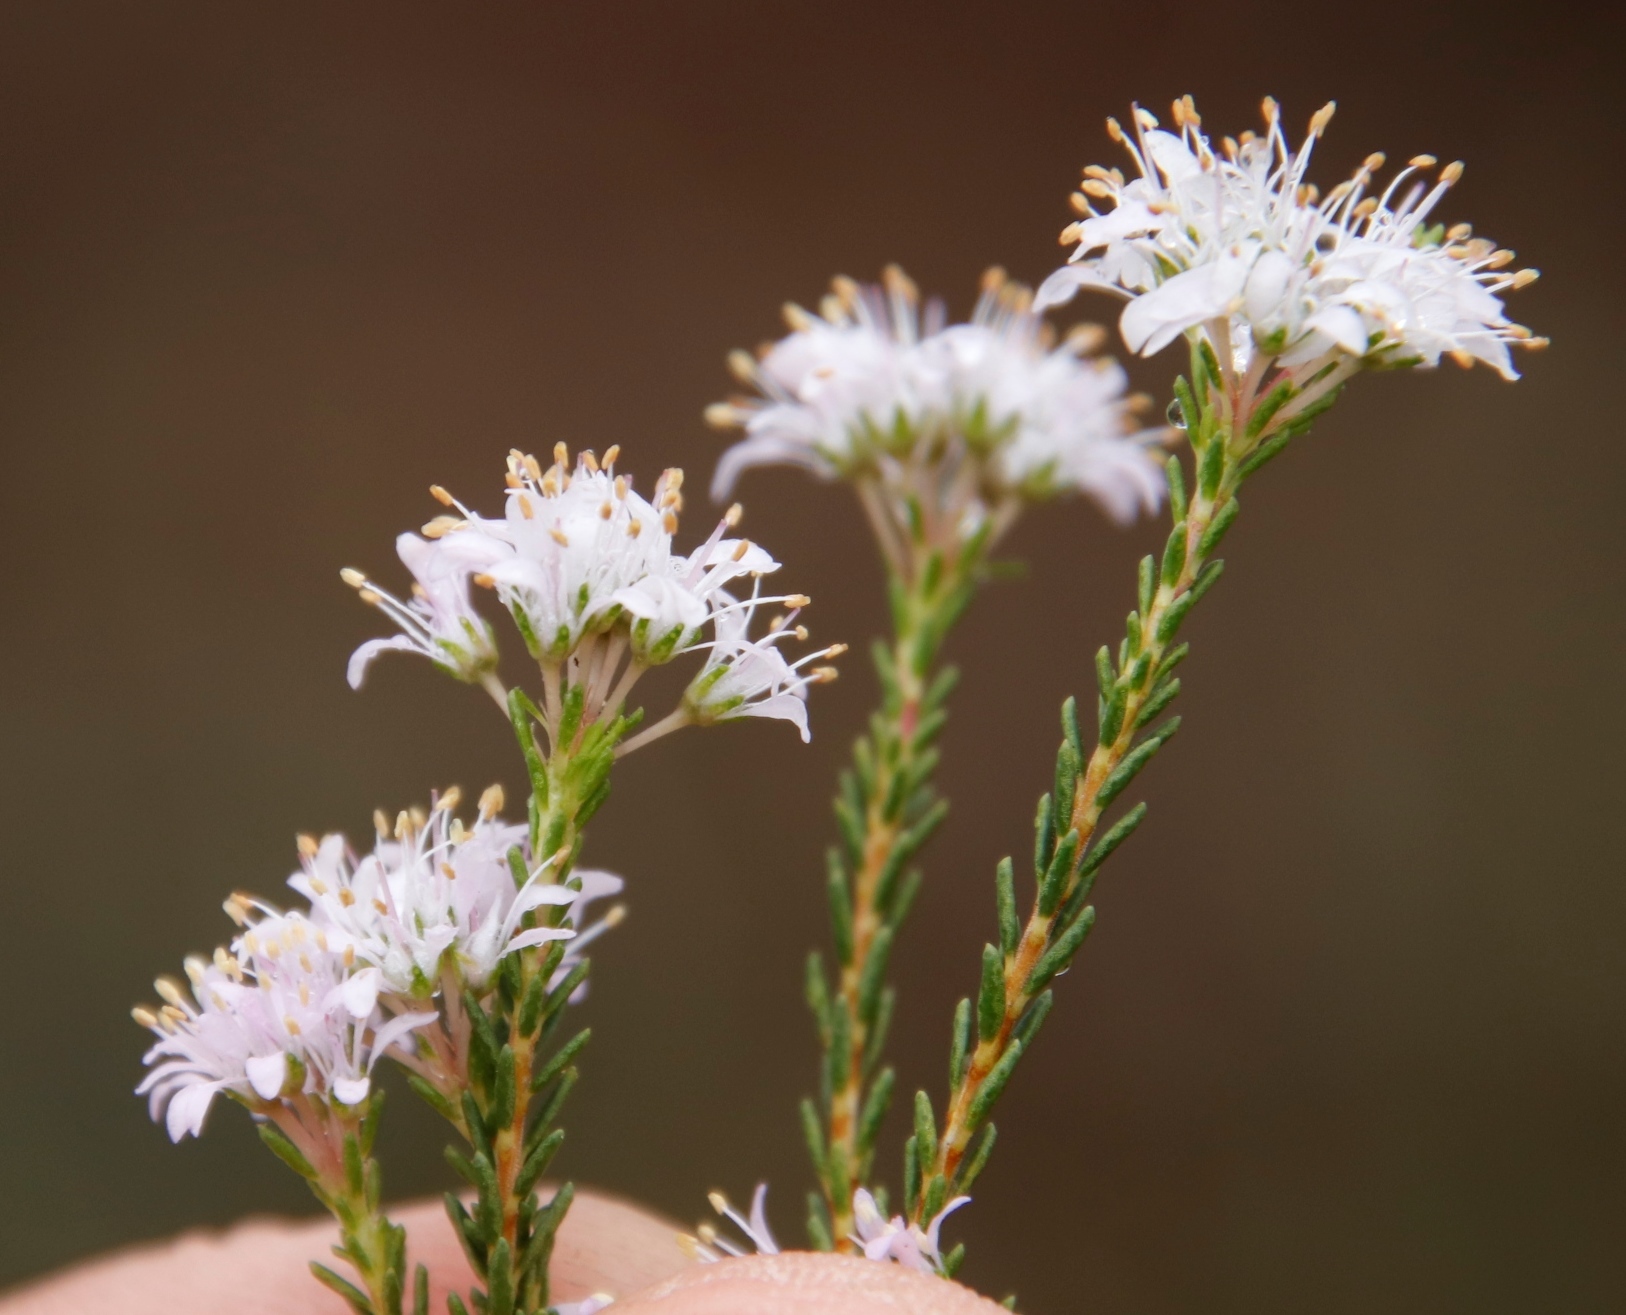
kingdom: Plantae
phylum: Tracheophyta
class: Magnoliopsida
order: Sapindales
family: Rutaceae
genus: Agathosma
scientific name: Agathosma capensis
